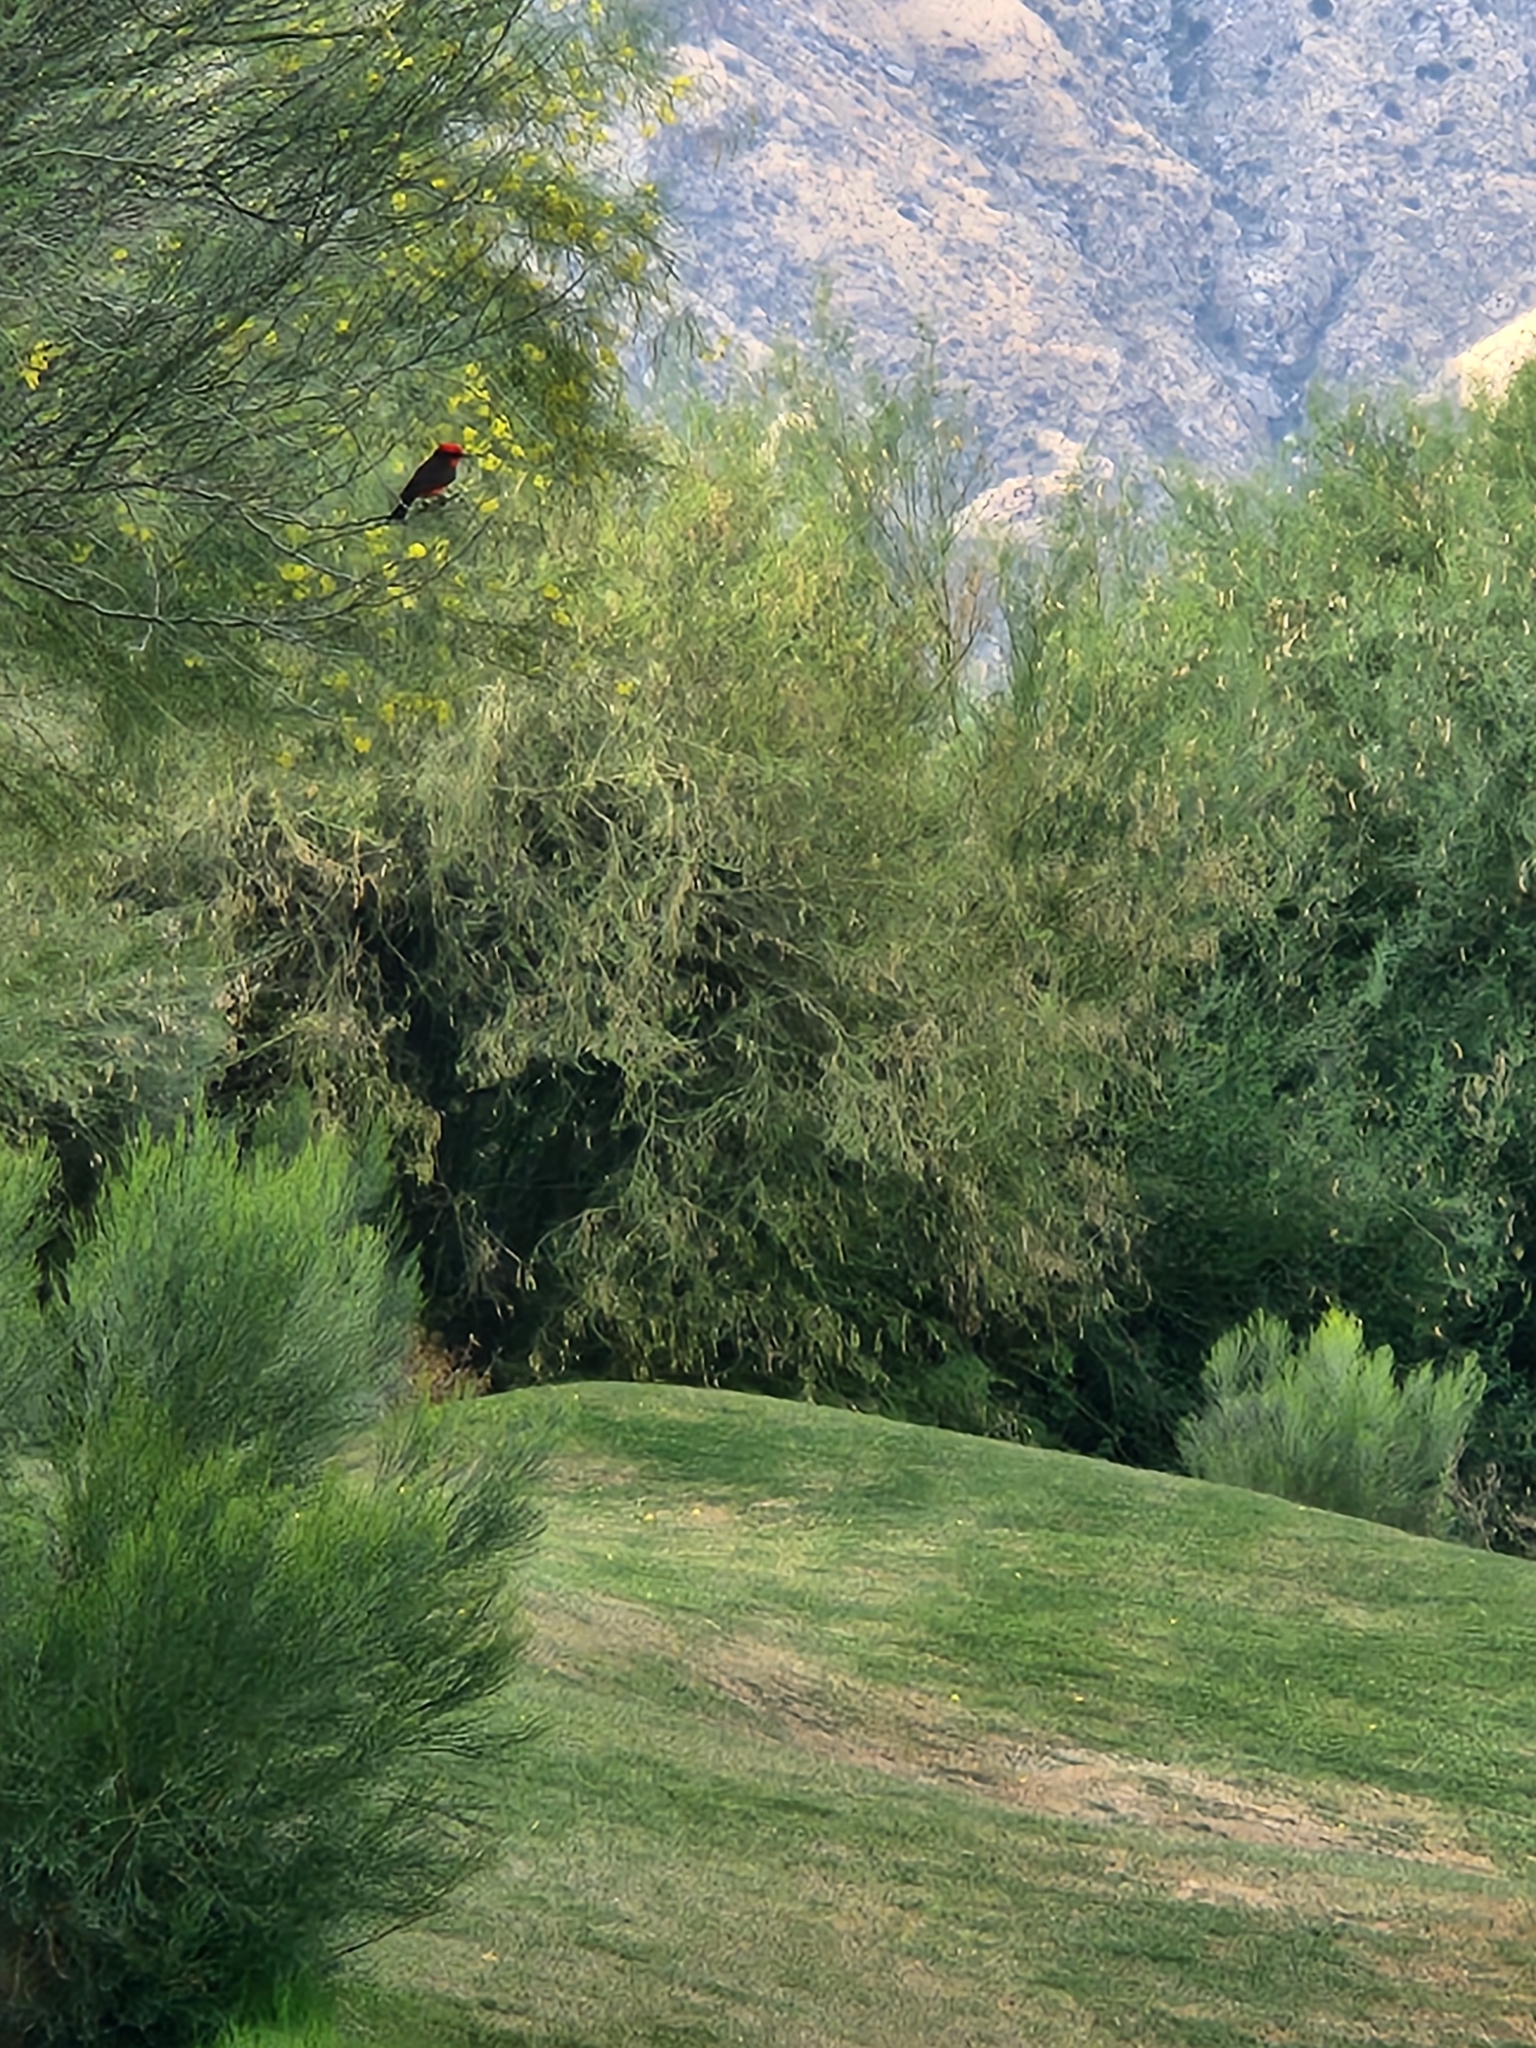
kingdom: Animalia
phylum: Chordata
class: Aves
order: Passeriformes
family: Tyrannidae
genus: Pyrocephalus
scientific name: Pyrocephalus rubinus
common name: Vermilion flycatcher
